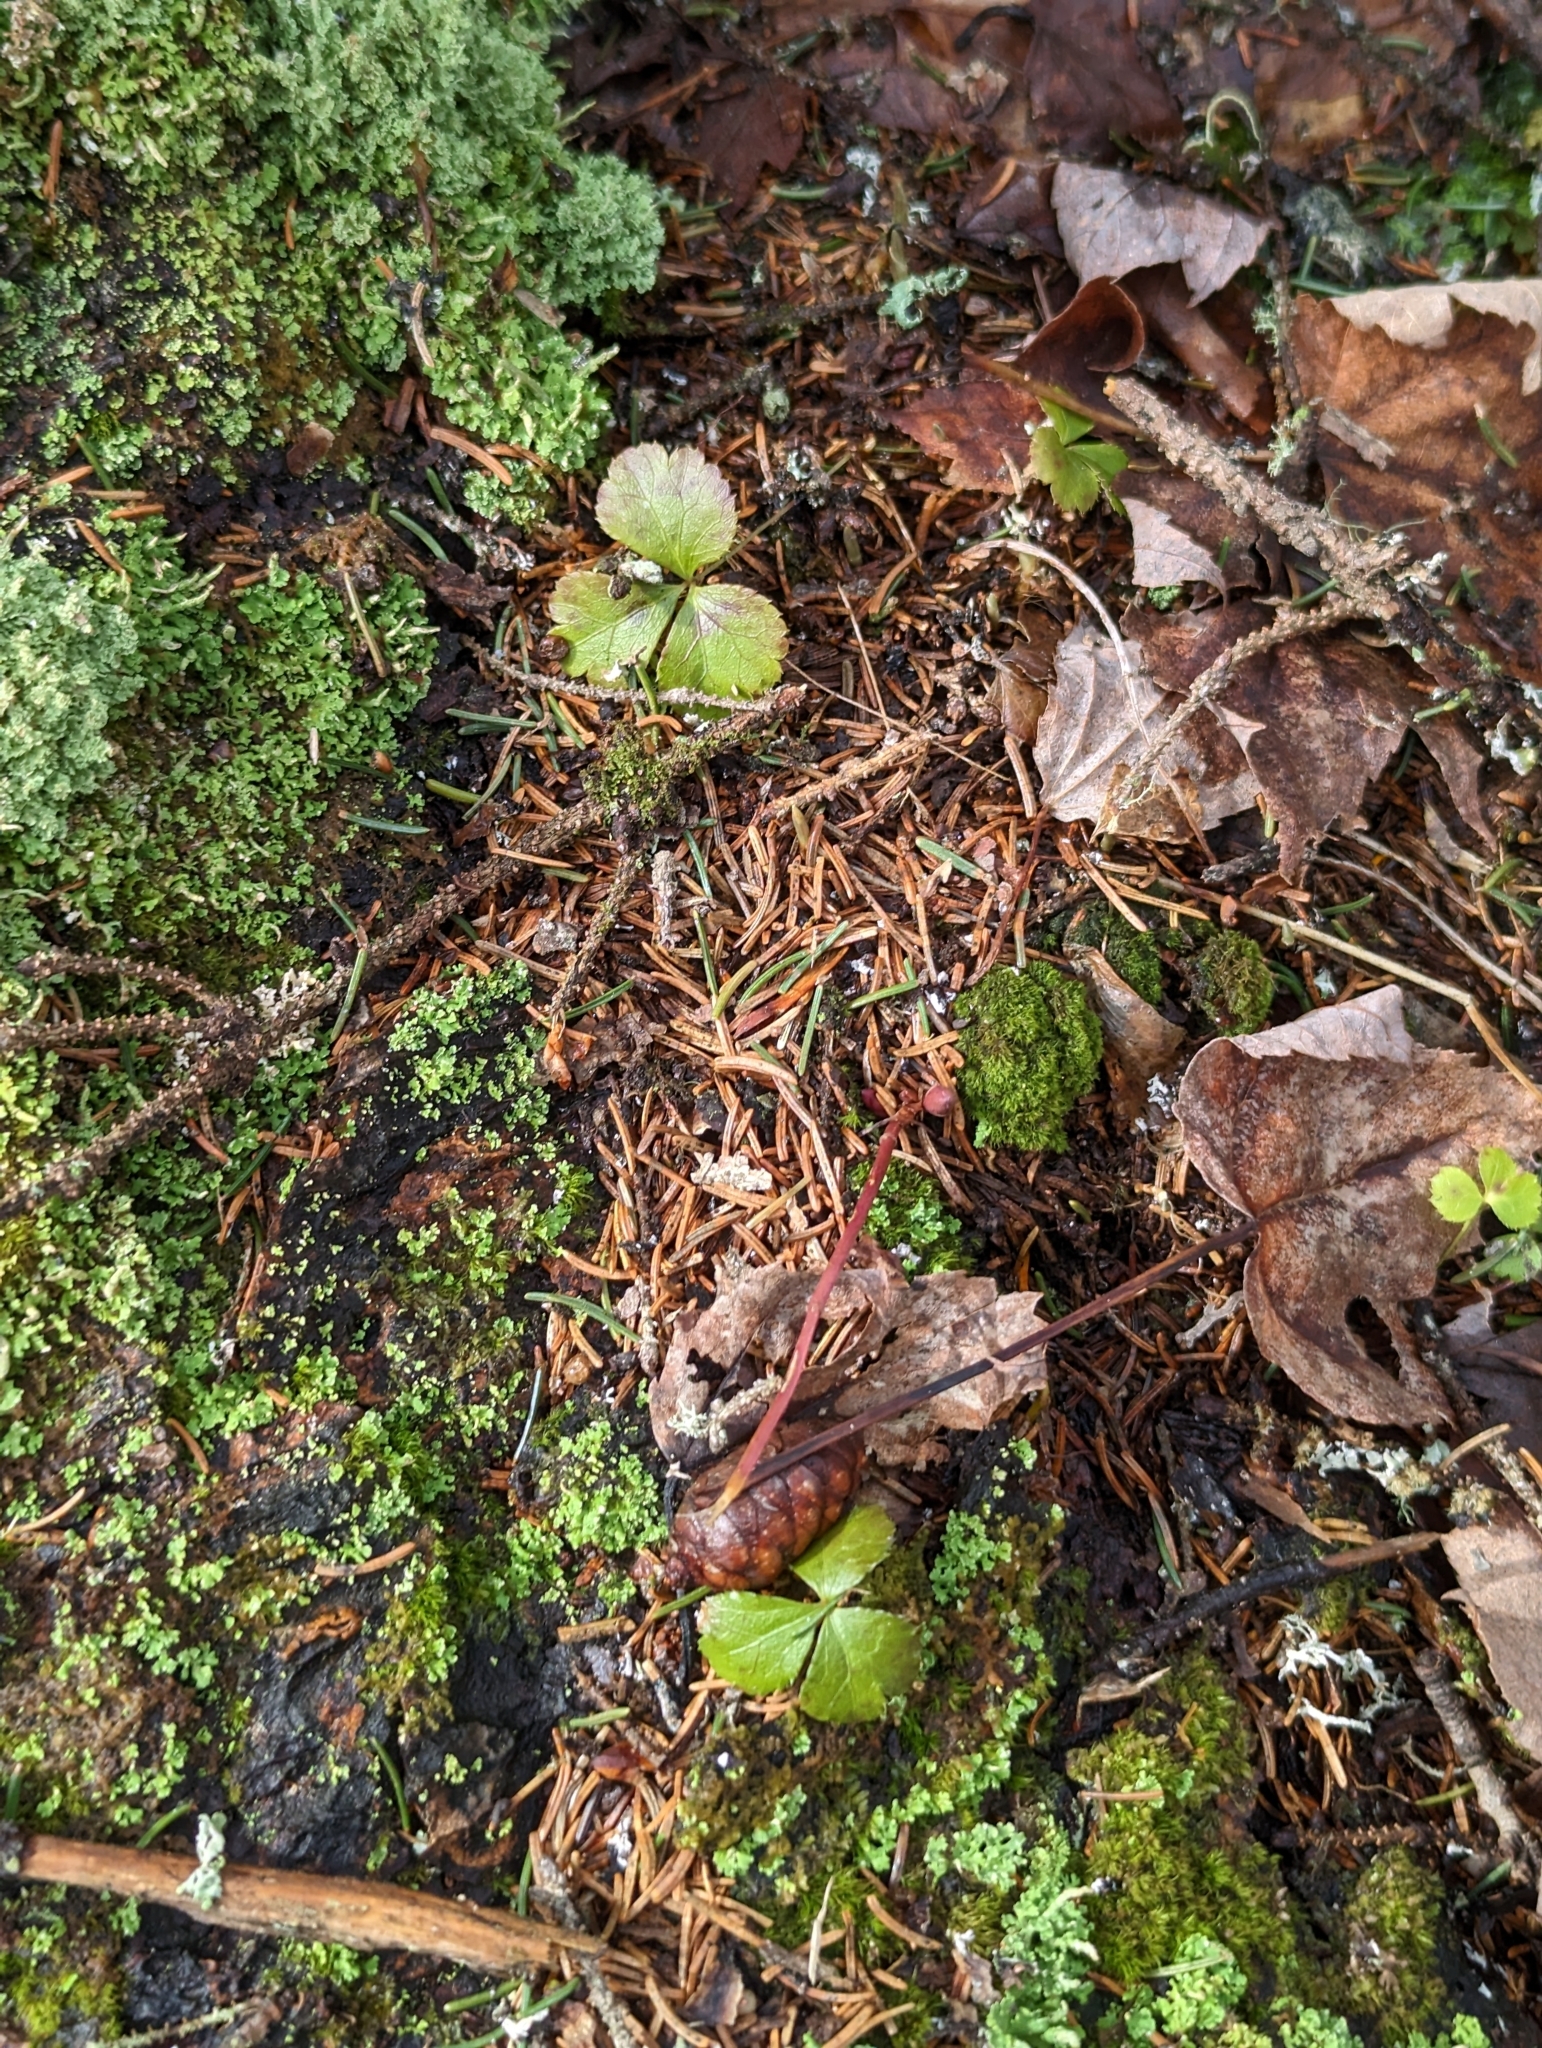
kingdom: Plantae
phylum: Tracheophyta
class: Magnoliopsida
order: Ranunculales
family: Ranunculaceae
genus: Coptis
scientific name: Coptis trifolia
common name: Canker-root
